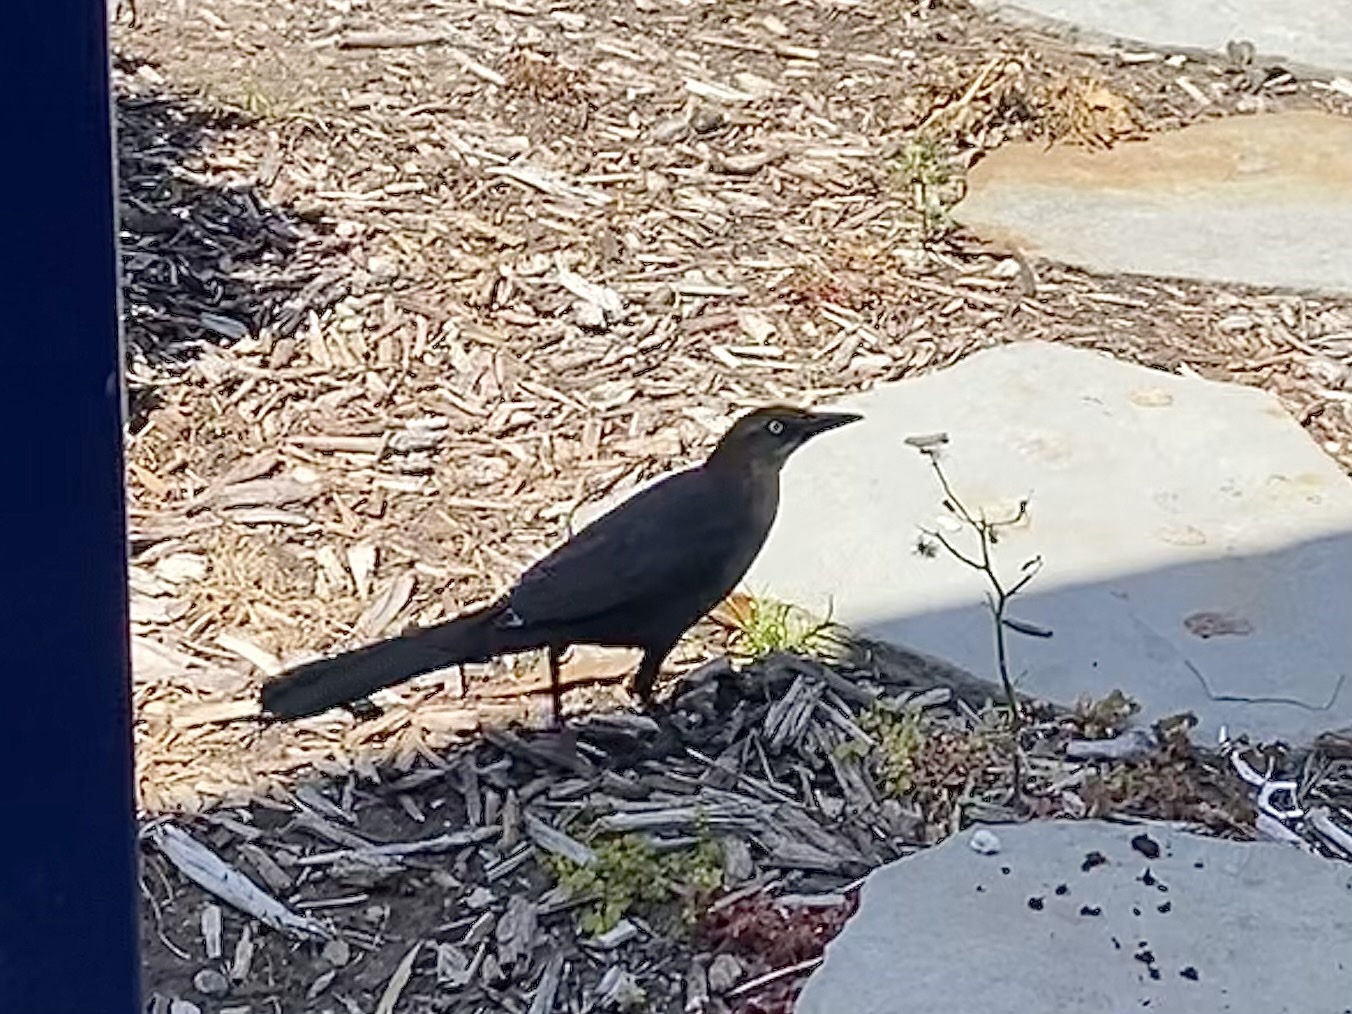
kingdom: Animalia
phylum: Chordata
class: Aves
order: Passeriformes
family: Icteridae
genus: Quiscalus
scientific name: Quiscalus mexicanus
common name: Great-tailed grackle
